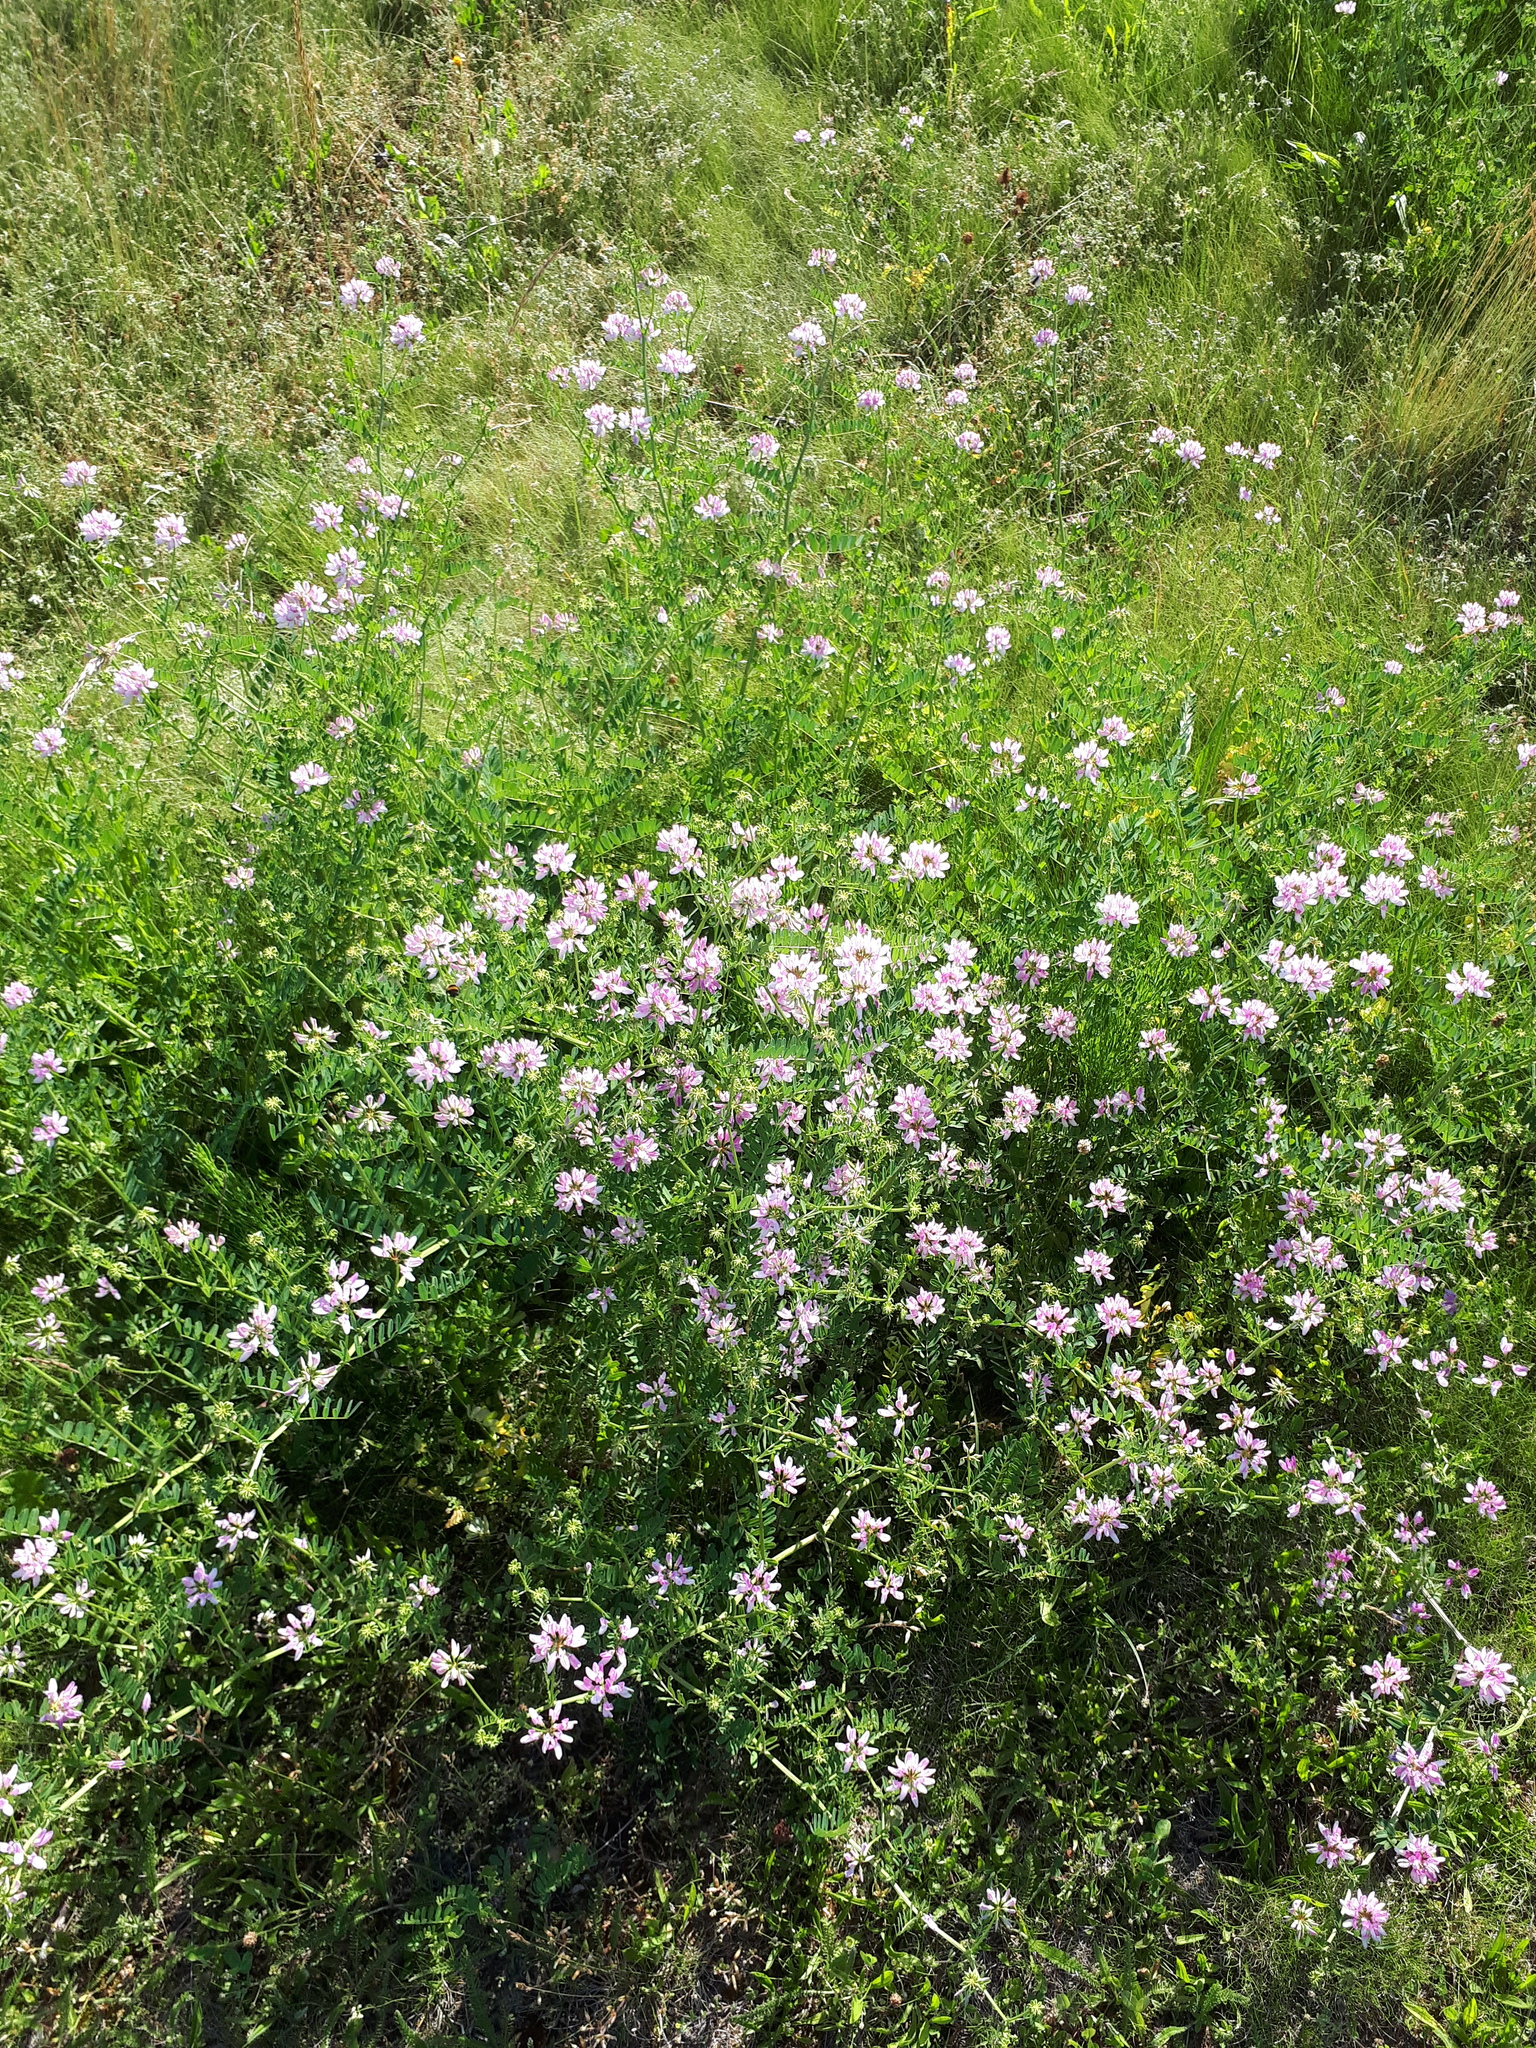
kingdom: Plantae
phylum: Tracheophyta
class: Magnoliopsida
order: Fabales
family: Fabaceae
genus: Coronilla
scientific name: Coronilla varia
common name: Crownvetch
